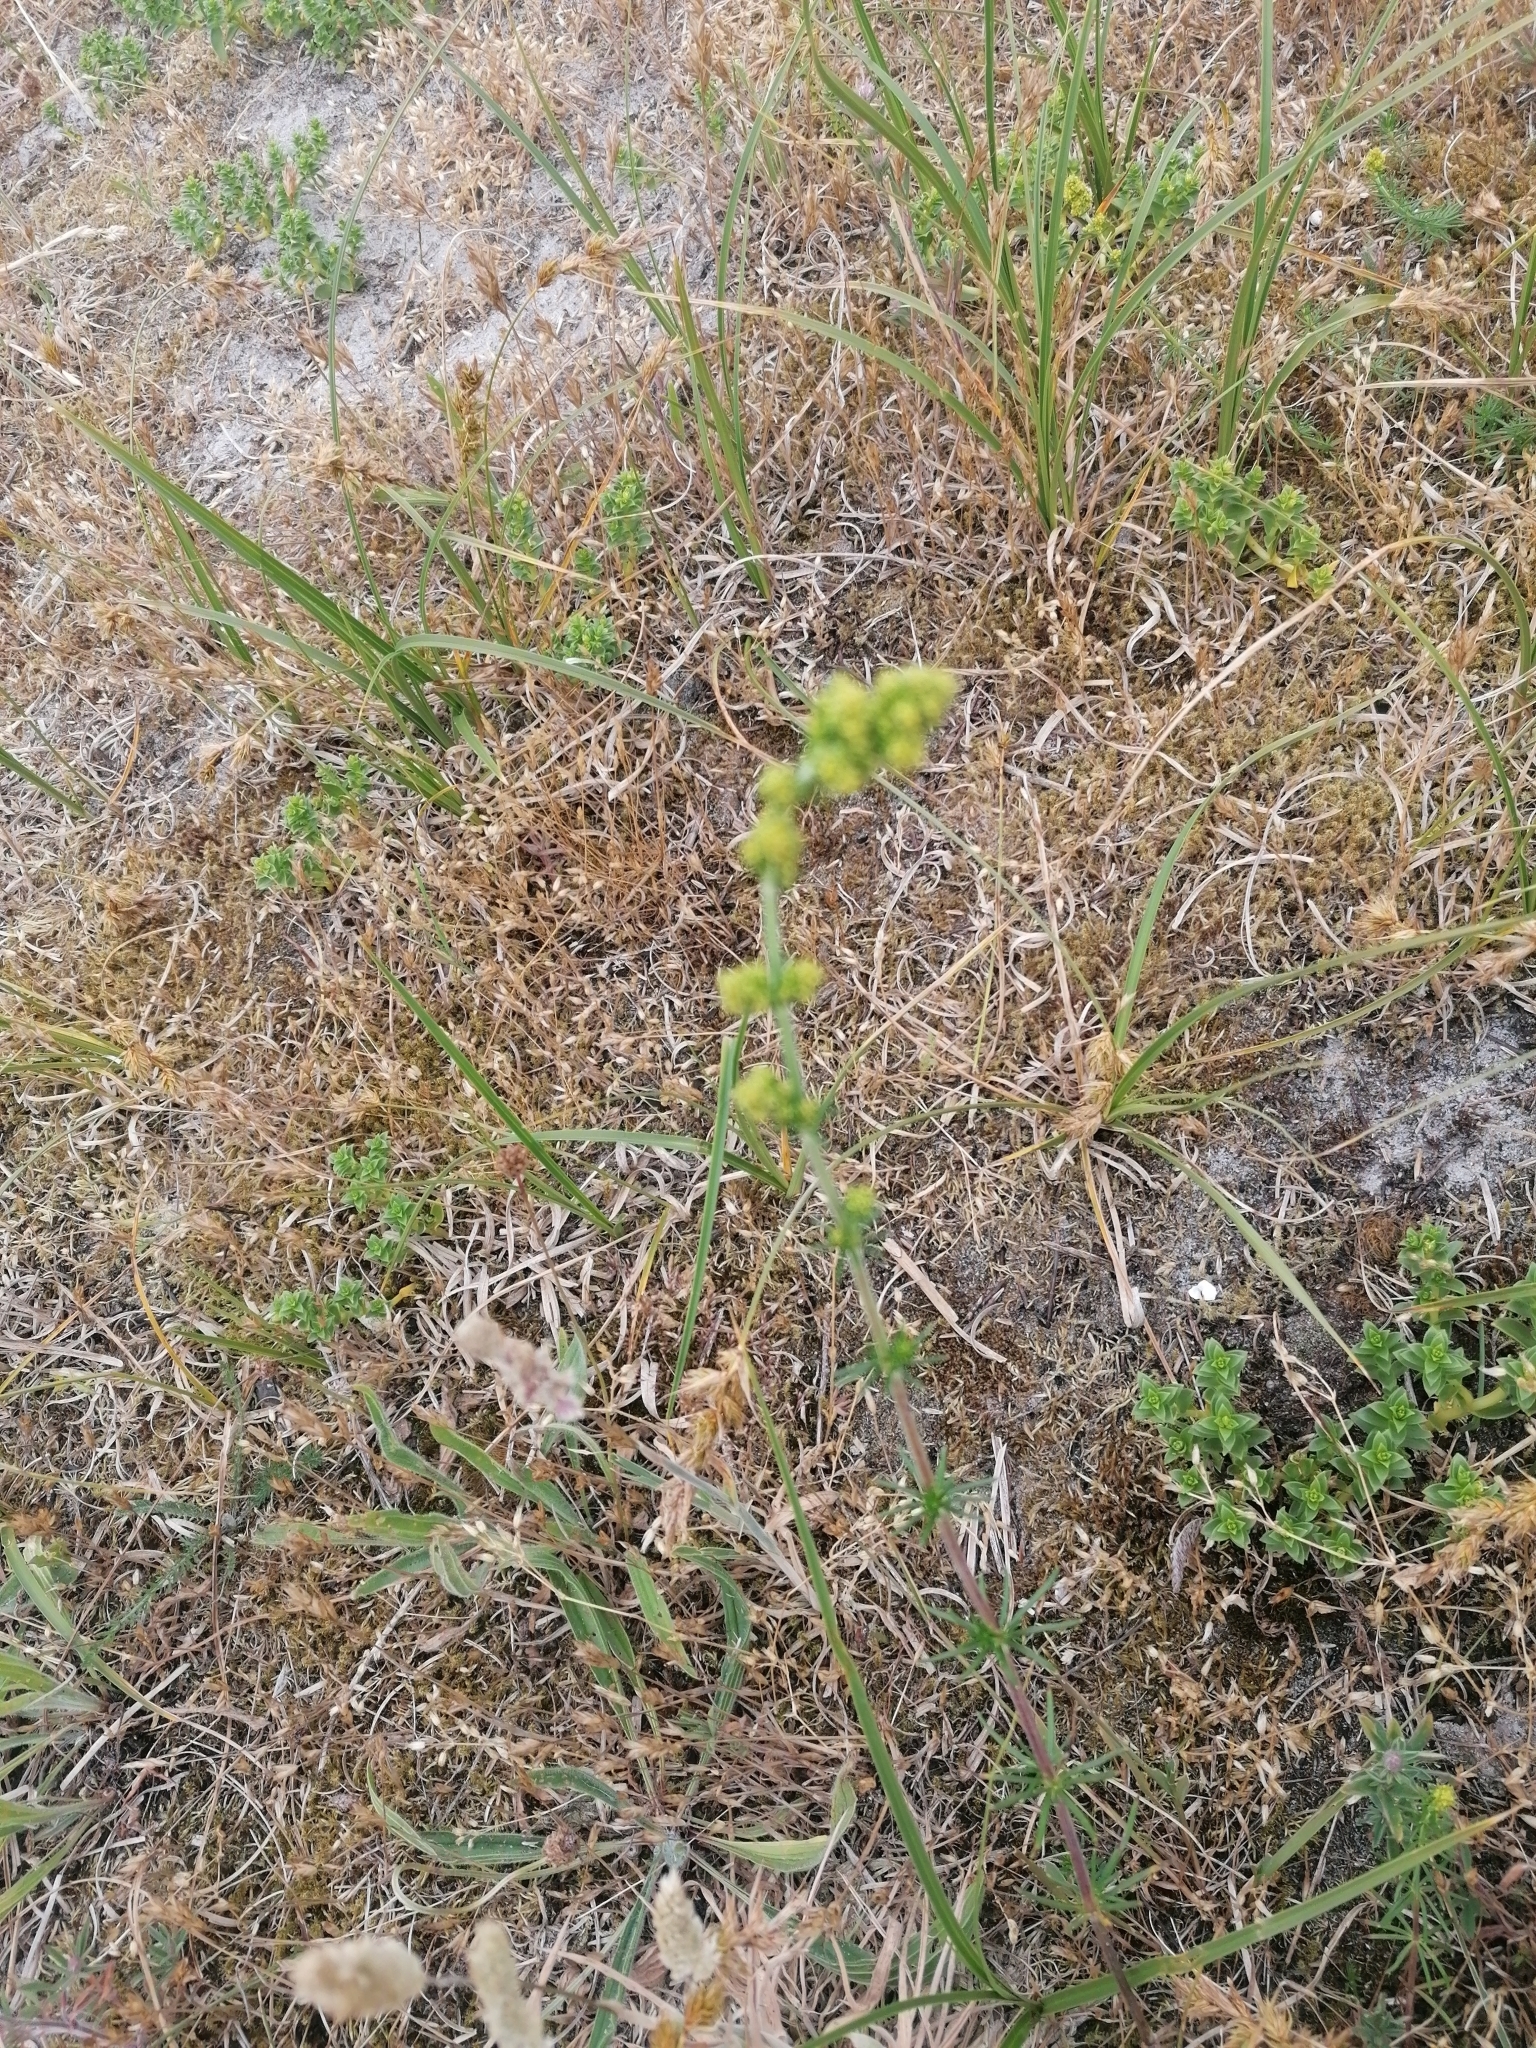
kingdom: Plantae
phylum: Tracheophyta
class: Magnoliopsida
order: Gentianales
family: Rubiaceae
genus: Galium
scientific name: Galium verum
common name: Lady's bedstraw
